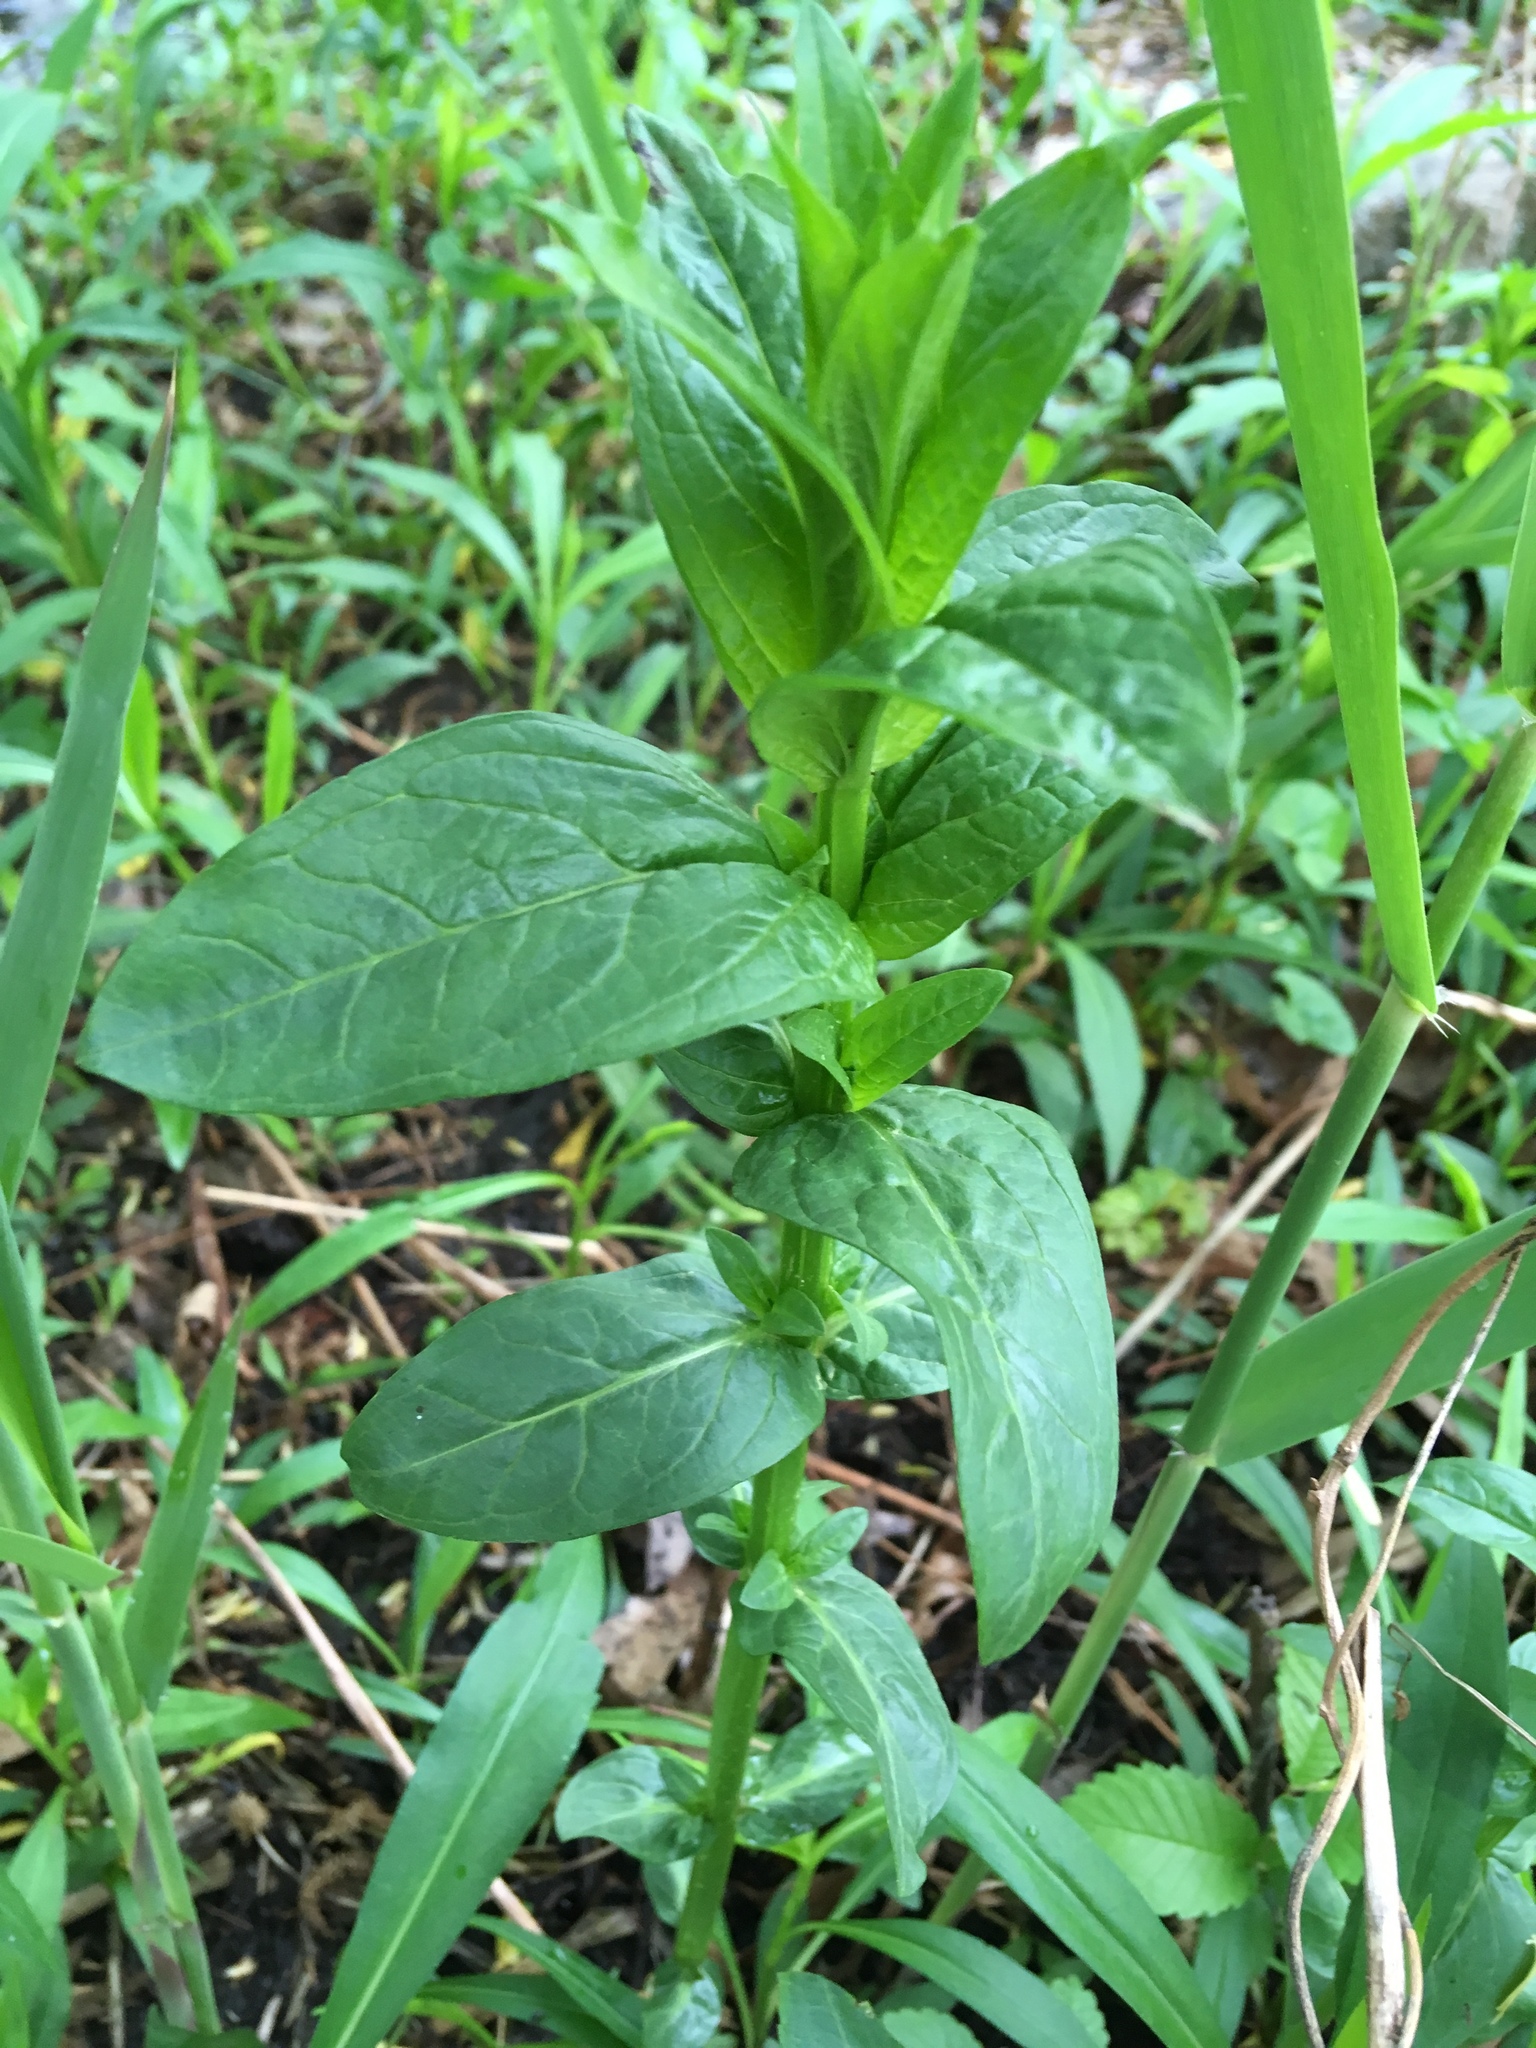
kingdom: Plantae
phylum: Tracheophyta
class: Magnoliopsida
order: Myrtales
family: Lythraceae
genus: Lythrum
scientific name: Lythrum salicaria
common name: Purple loosestrife
